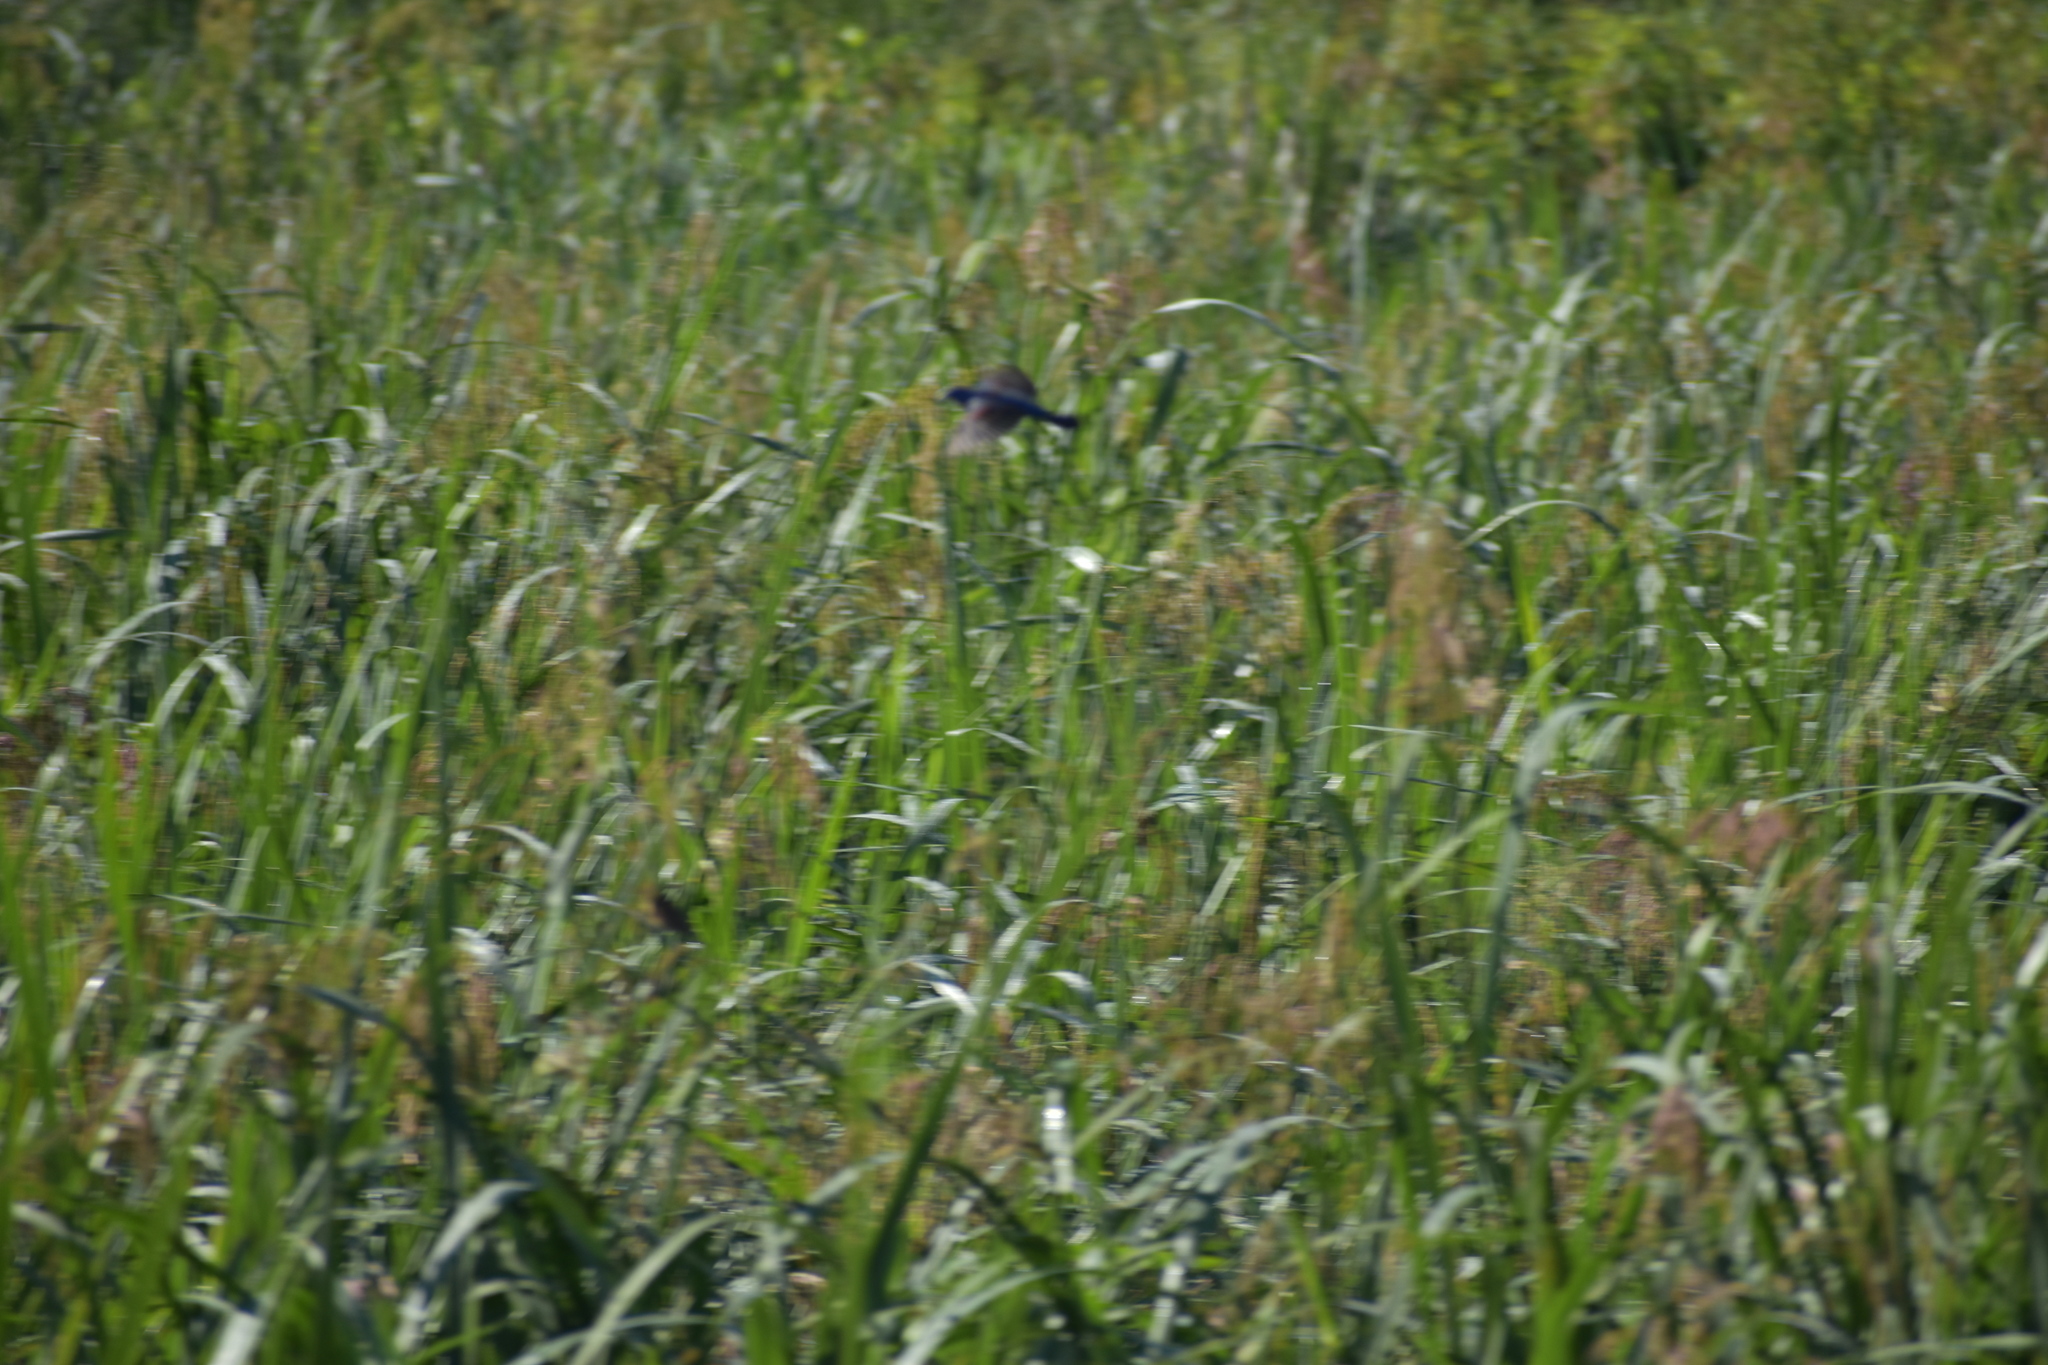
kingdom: Animalia
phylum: Chordata
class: Aves
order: Passeriformes
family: Cardinalidae
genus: Passerina
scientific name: Passerina caerulea
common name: Blue grosbeak
